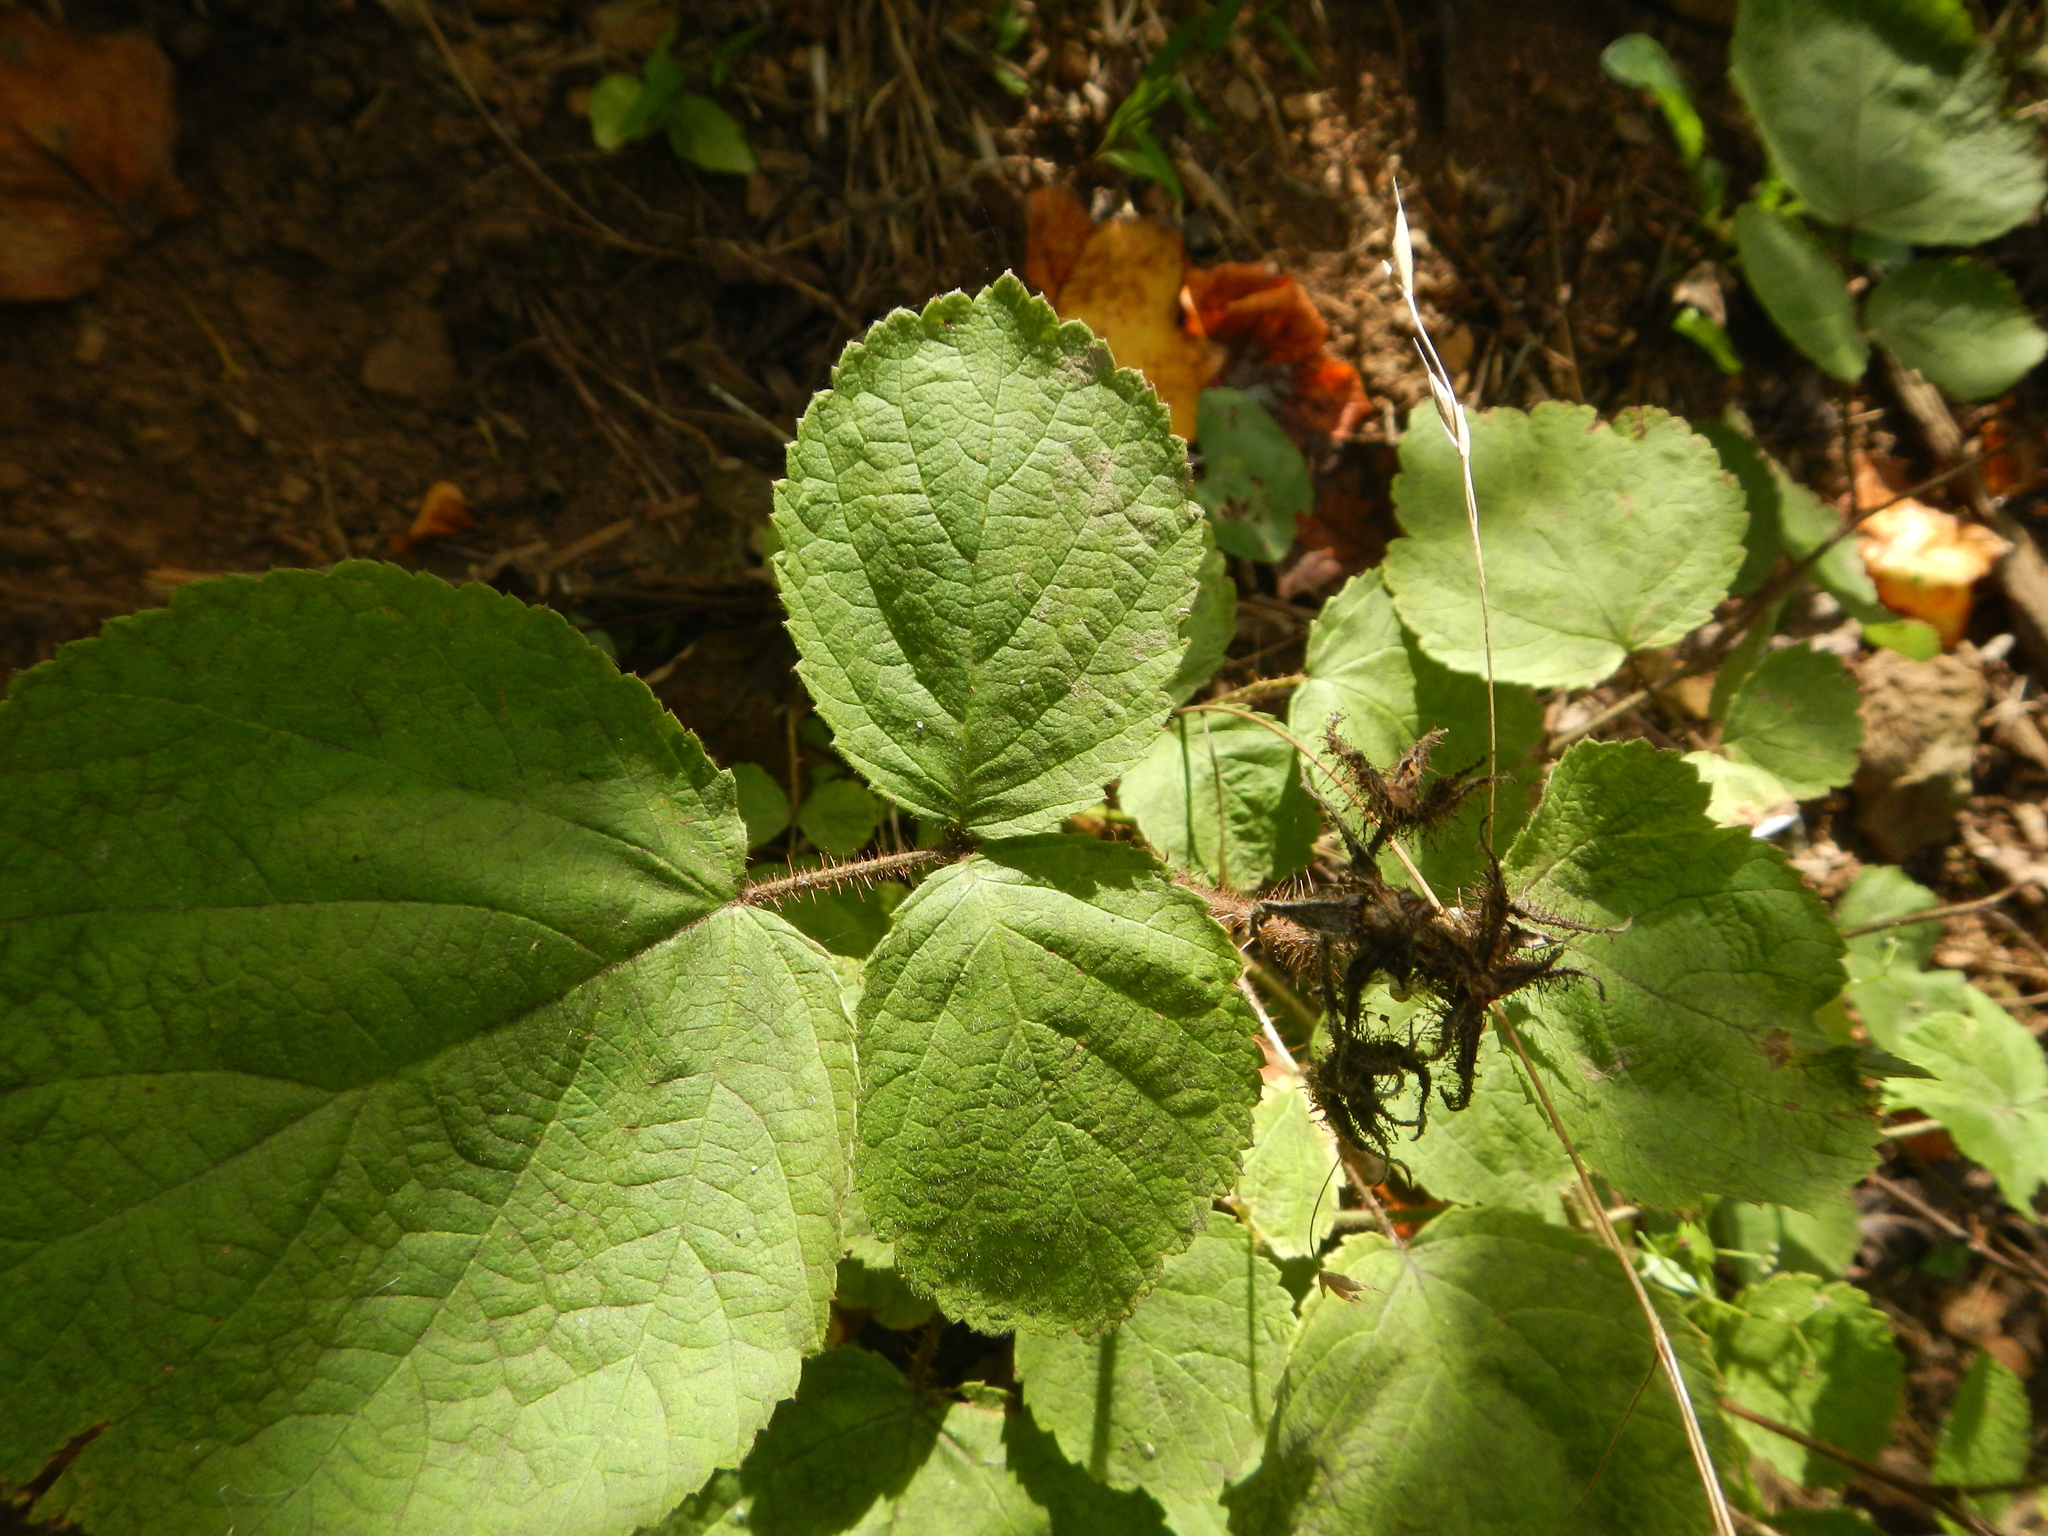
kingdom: Plantae
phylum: Tracheophyta
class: Magnoliopsida
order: Rosales
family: Rosaceae
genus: Rubus
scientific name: Rubus phoenicolasius
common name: Japanese wineberry
